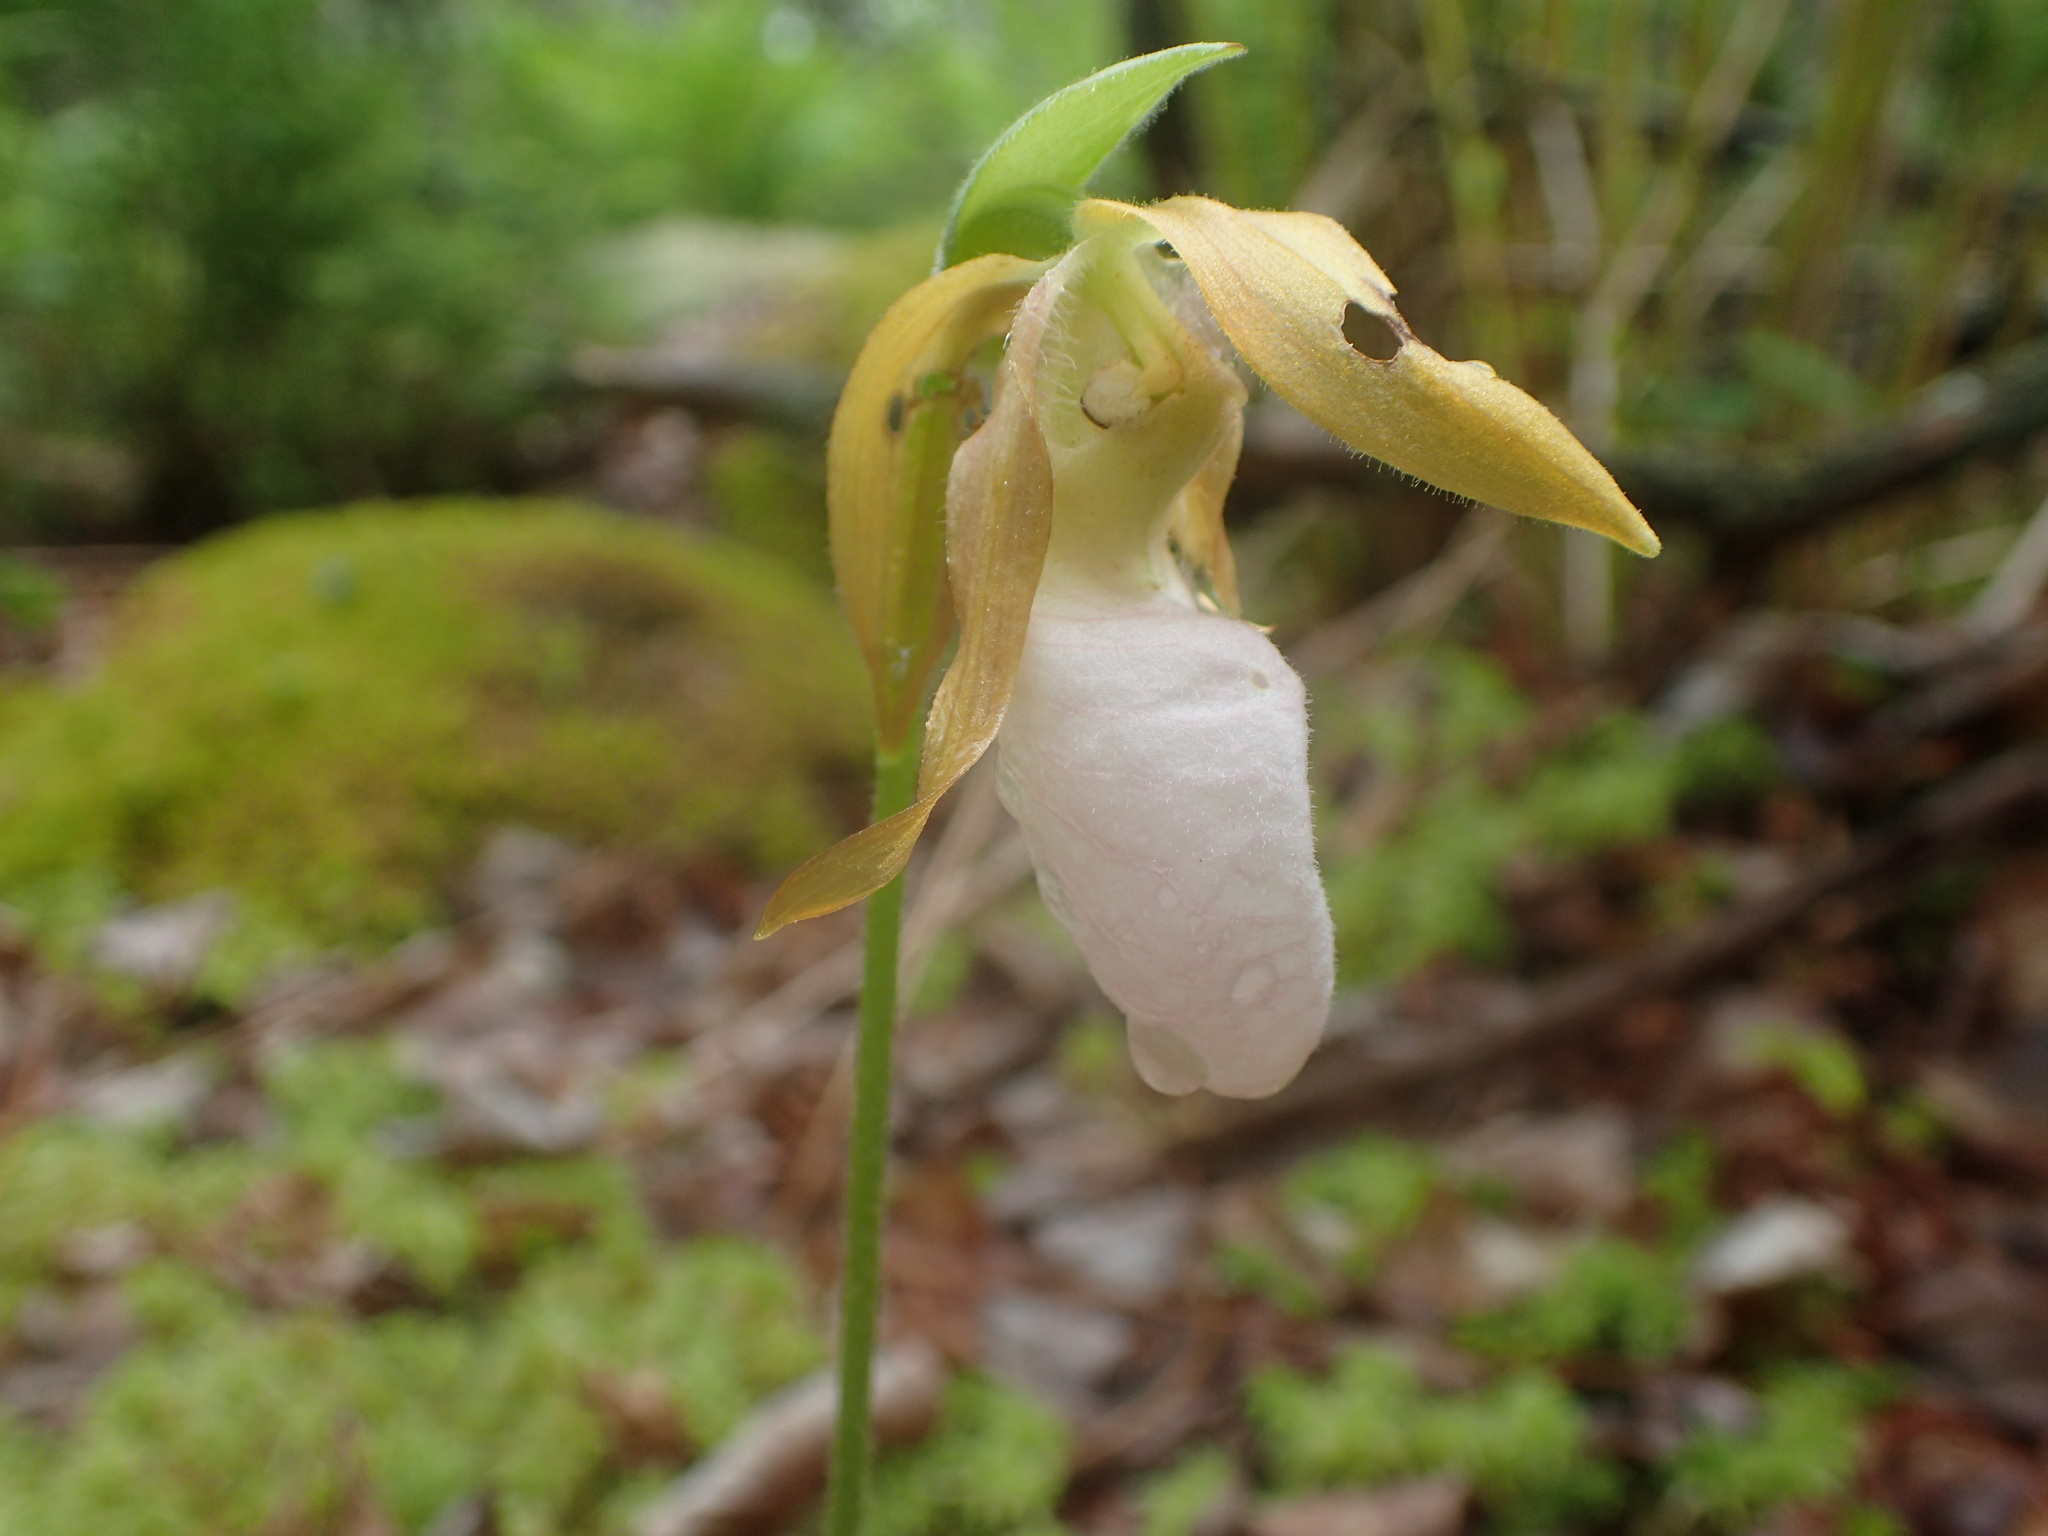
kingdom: Plantae
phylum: Tracheophyta
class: Liliopsida
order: Asparagales
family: Orchidaceae
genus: Cypripedium
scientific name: Cypripedium acaule
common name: Pink lady's-slipper
